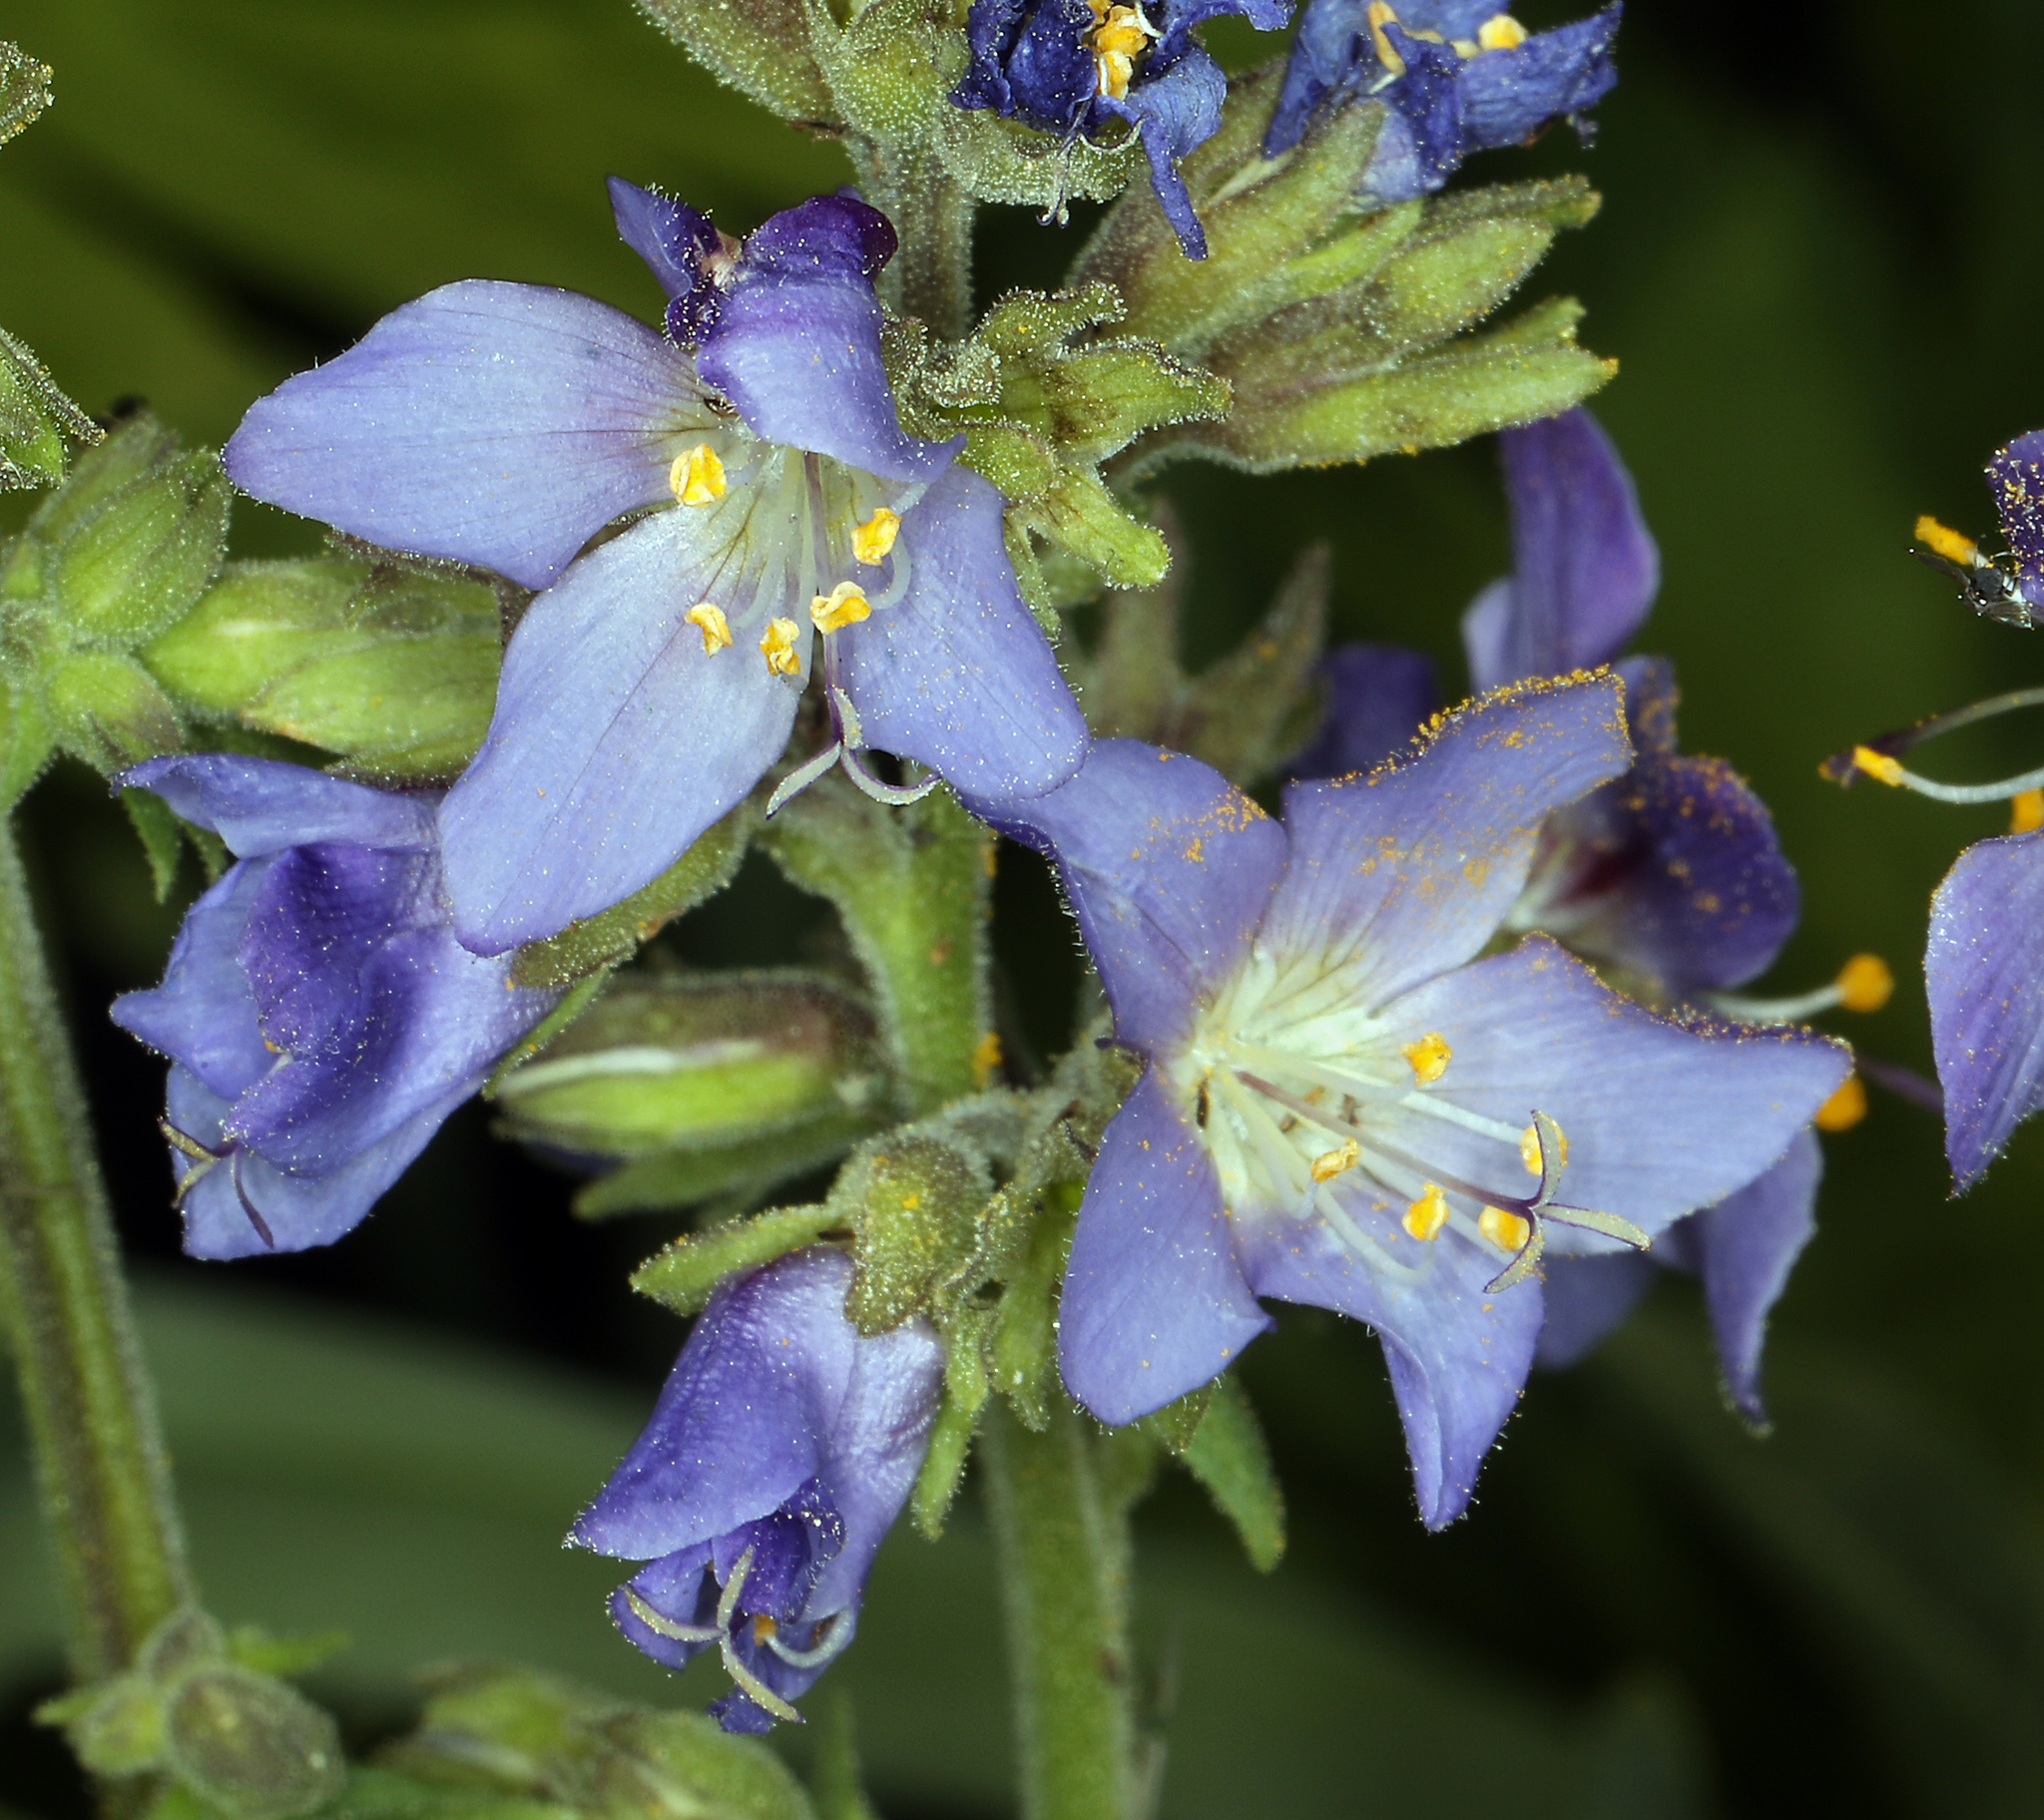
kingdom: Plantae
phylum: Tracheophyta
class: Magnoliopsida
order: Ericales
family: Polemoniaceae
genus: Polemonium
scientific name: Polemonium occidentale
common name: Western jacob's-ladder
